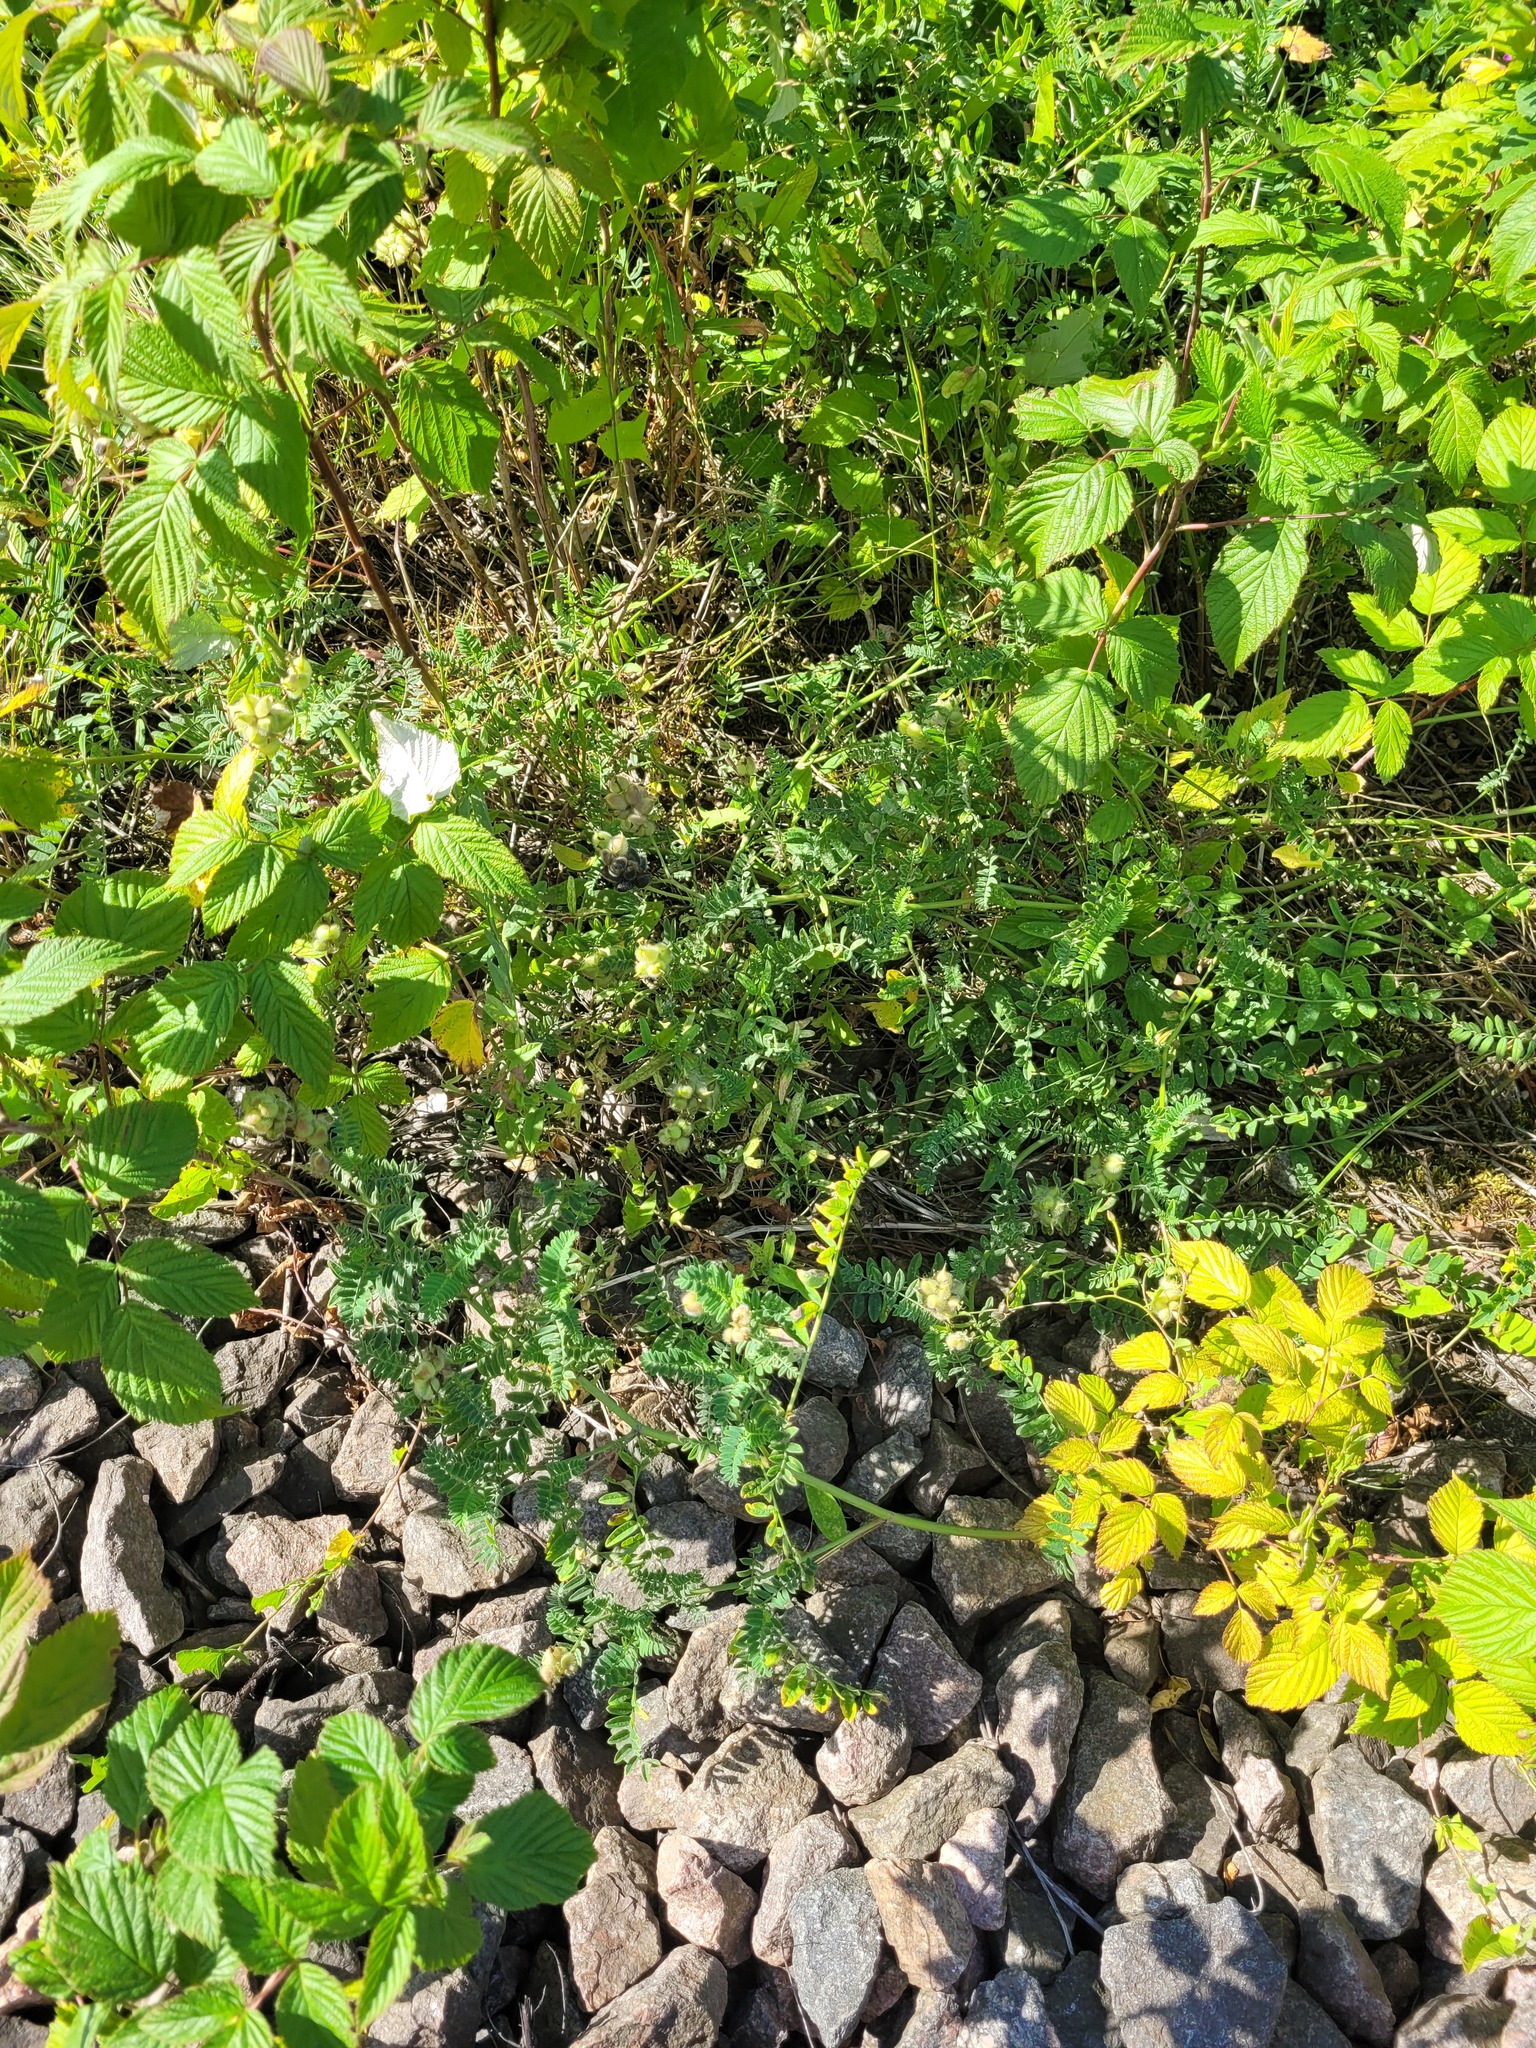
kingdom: Plantae
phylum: Tracheophyta
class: Magnoliopsida
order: Fabales
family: Fabaceae
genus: Astragalus
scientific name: Astragalus cicer
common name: Chick-pea milk-vetch
